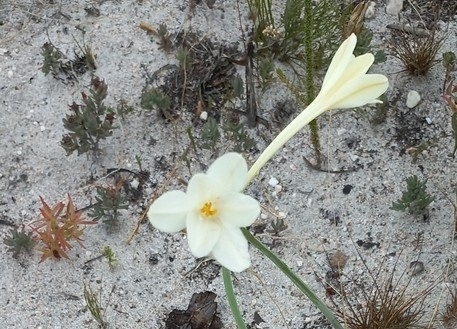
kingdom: Plantae
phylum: Tracheophyta
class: Liliopsida
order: Asparagales
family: Amaryllidaceae
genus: Cyrtanthus
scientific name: Cyrtanthus leucanthus
